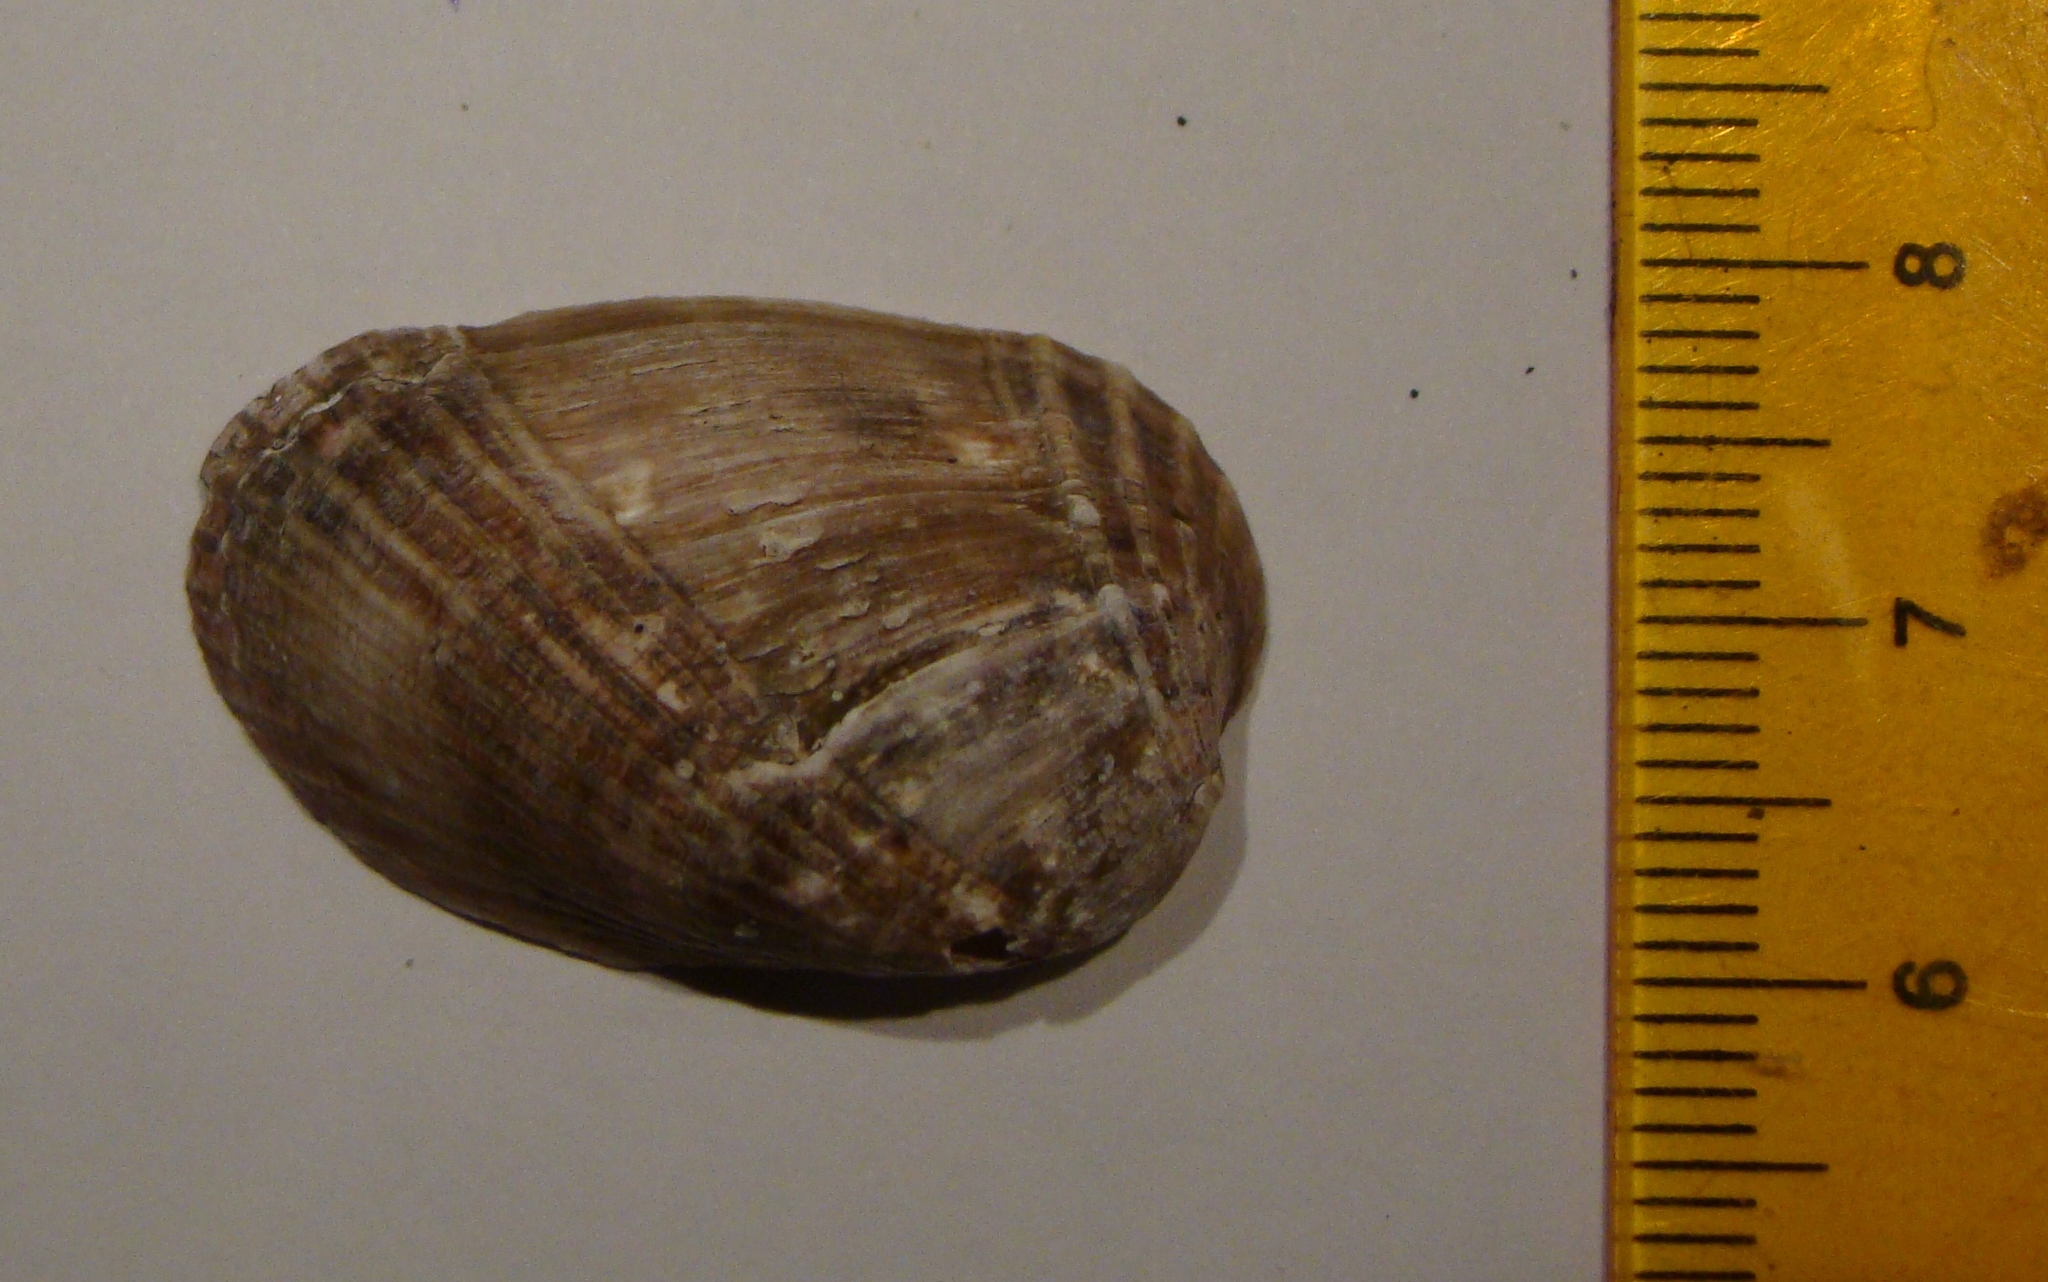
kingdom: Animalia
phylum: Mollusca
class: Bivalvia
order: Mytilida
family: Mytilidae
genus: Musculus
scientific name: Musculus impactus
